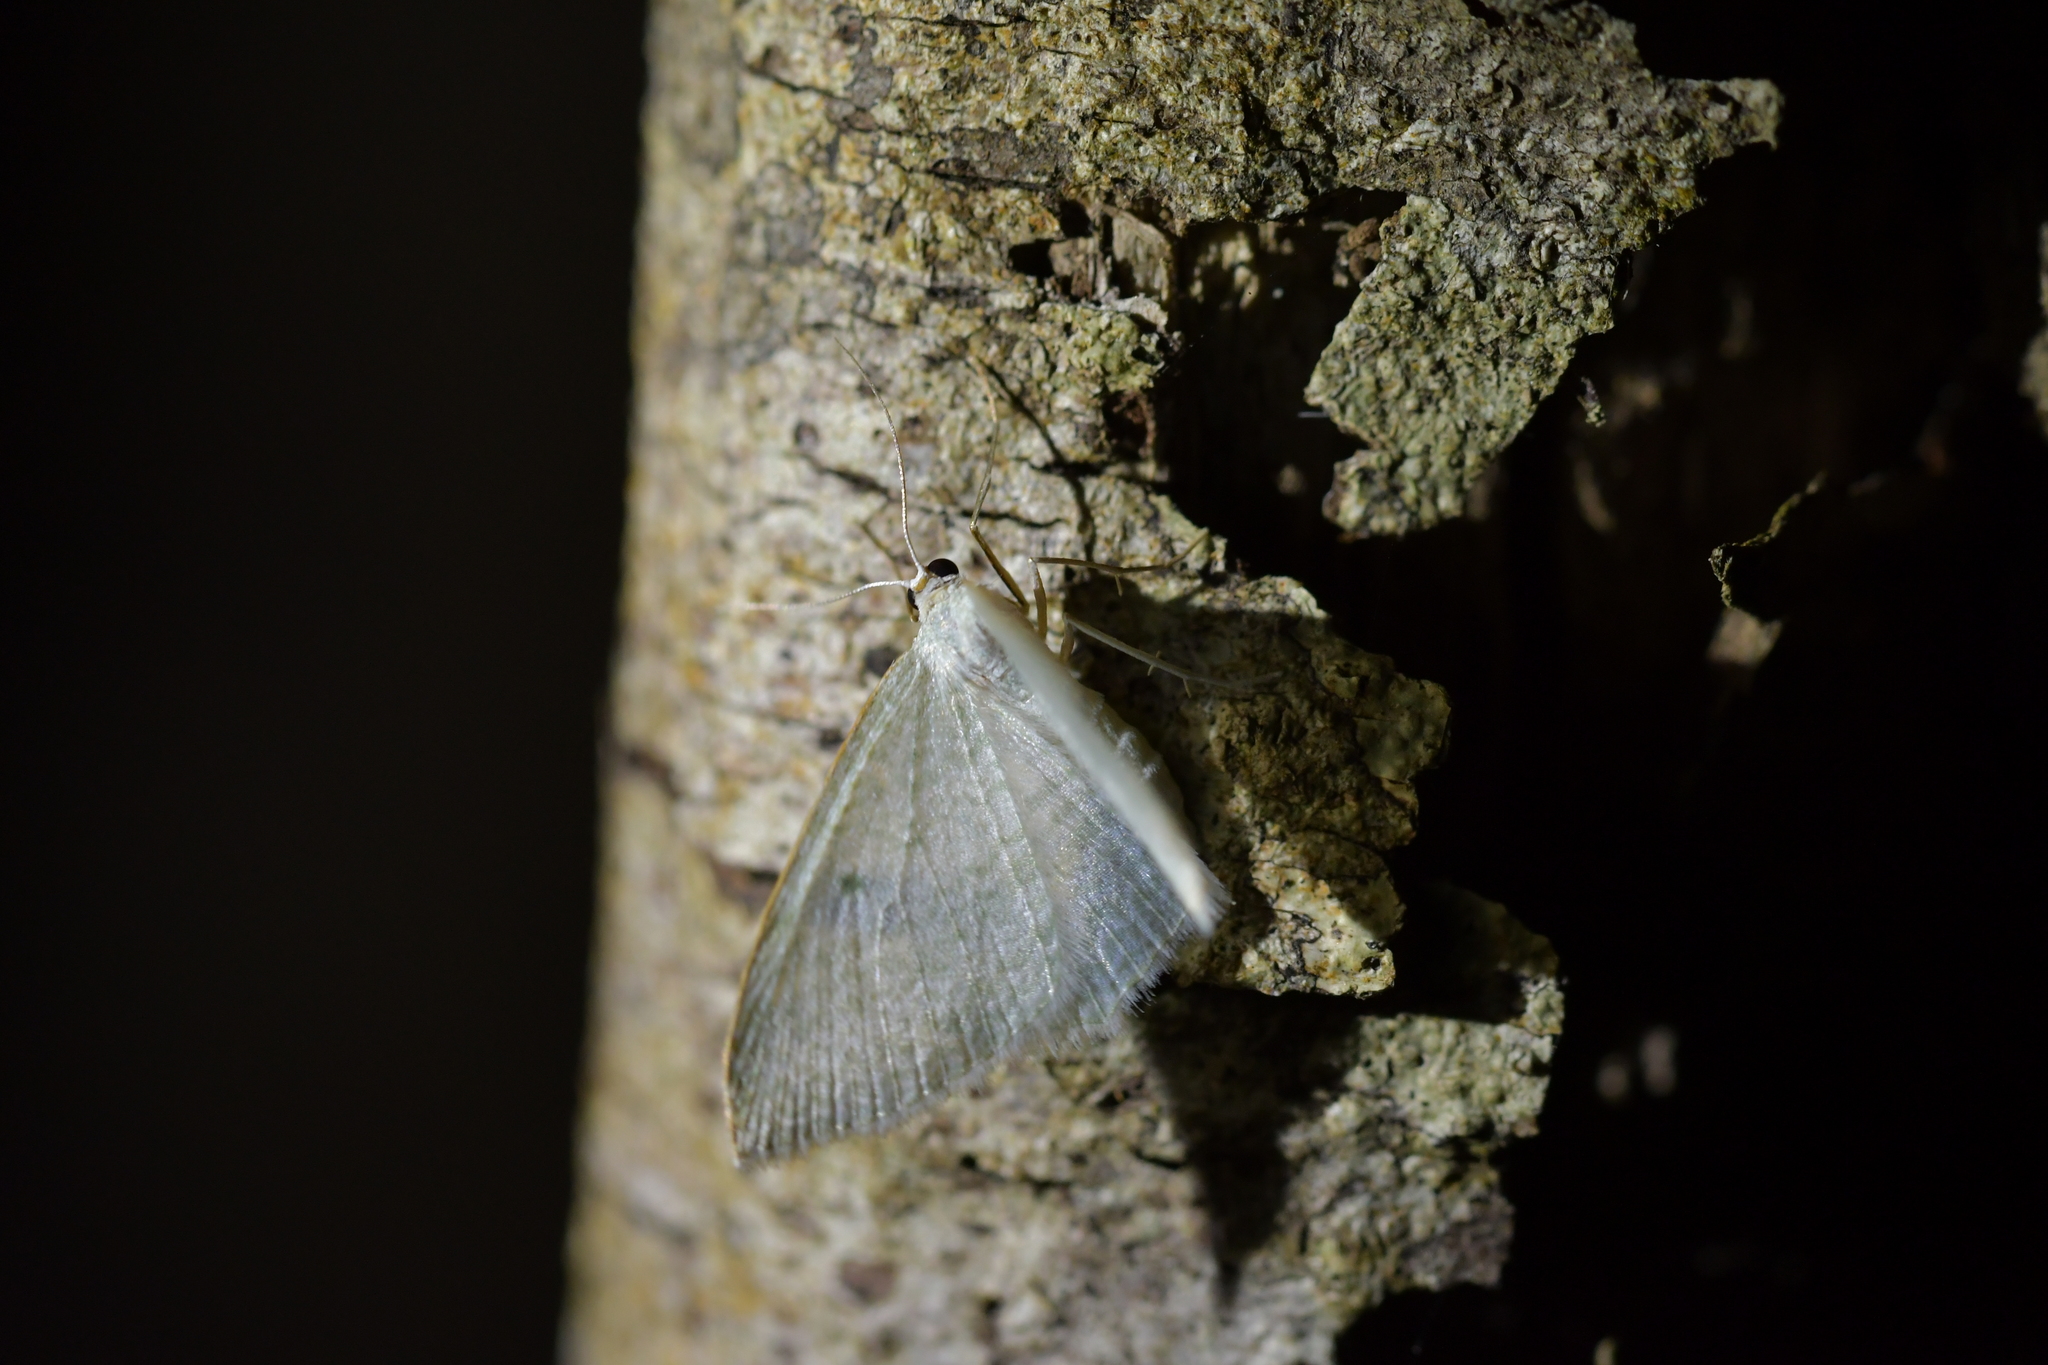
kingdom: Animalia
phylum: Arthropoda
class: Insecta
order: Lepidoptera
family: Geometridae
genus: Poecilasthena
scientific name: Poecilasthena pulchraria
